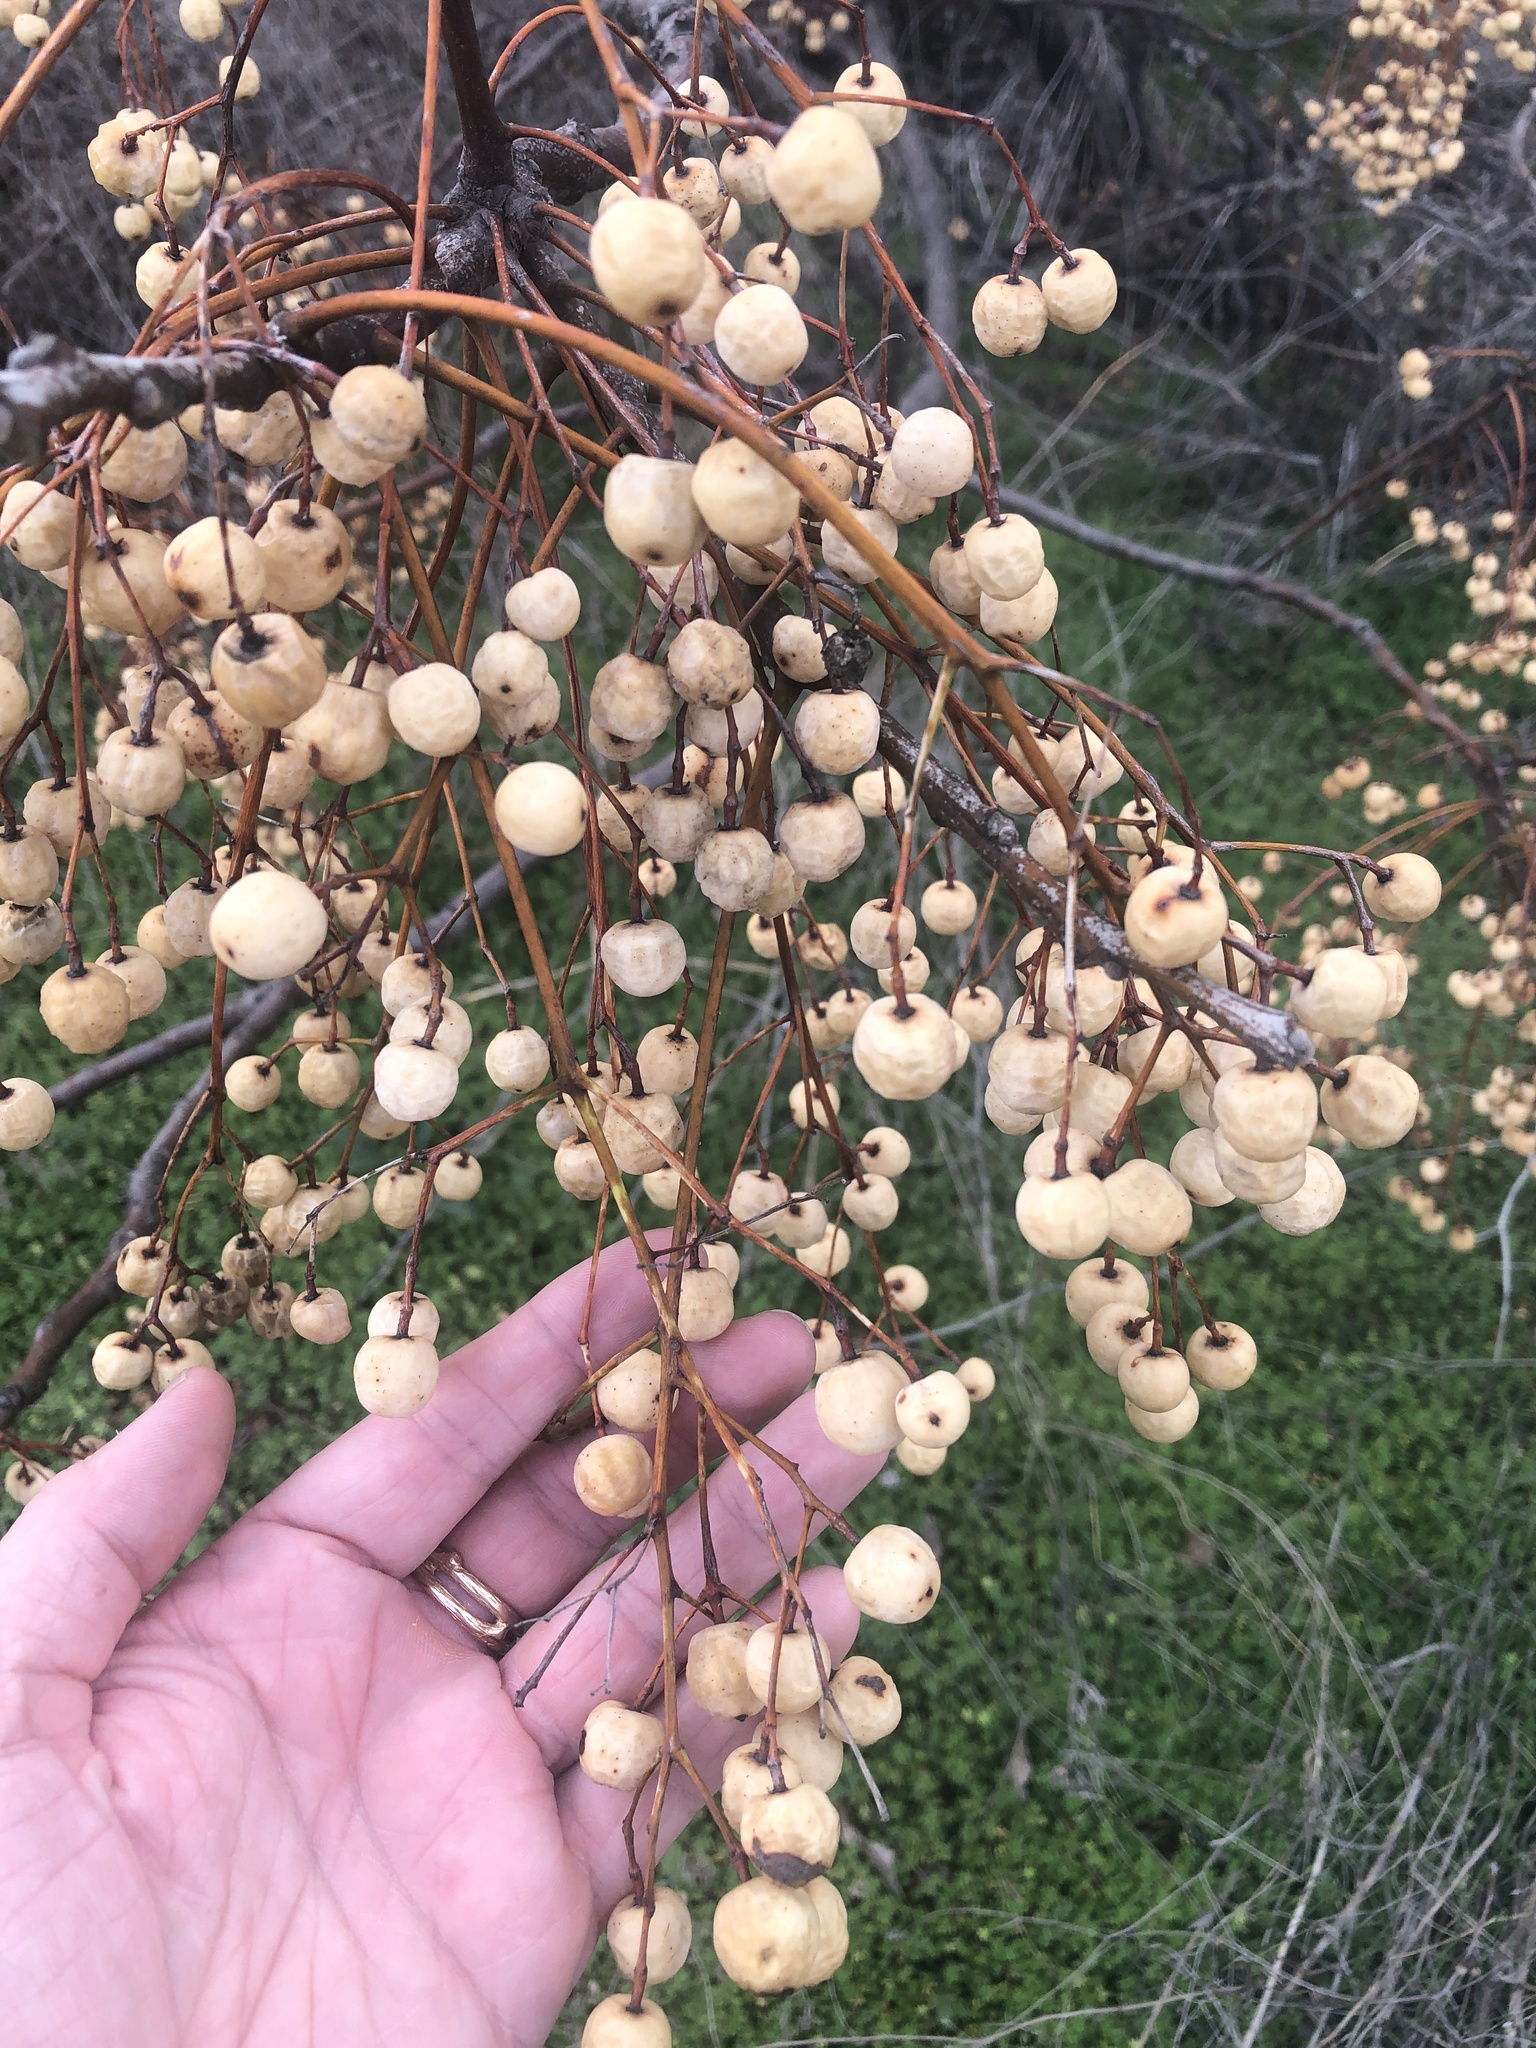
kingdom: Plantae
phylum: Tracheophyta
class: Magnoliopsida
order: Sapindales
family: Meliaceae
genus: Melia
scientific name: Melia azedarach
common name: Chinaberrytree
